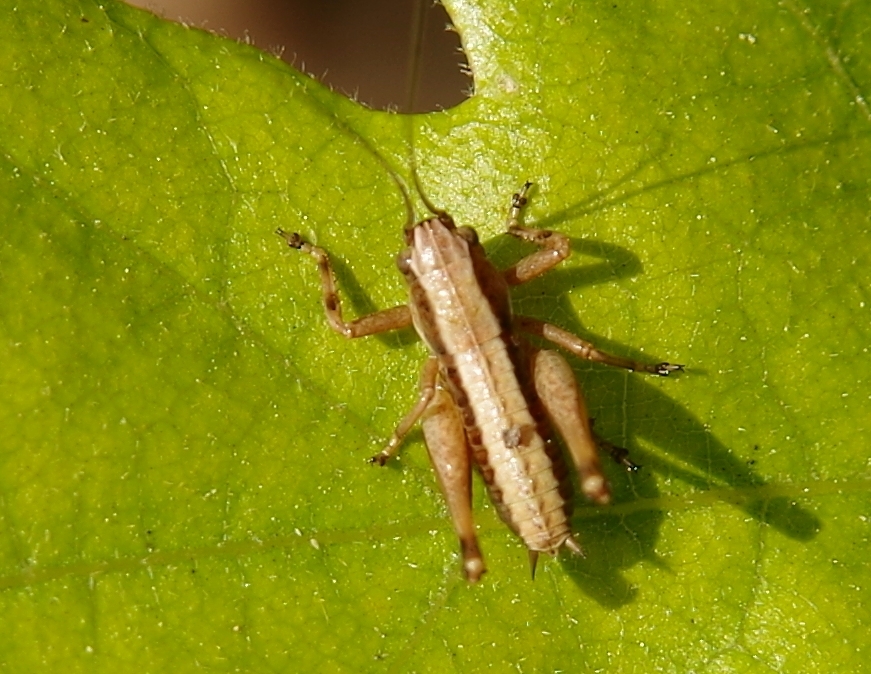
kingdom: Animalia
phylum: Arthropoda
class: Insecta
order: Orthoptera
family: Tettigoniidae
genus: Pholidoptera
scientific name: Pholidoptera griseoaptera
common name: Dark bush-cricket
